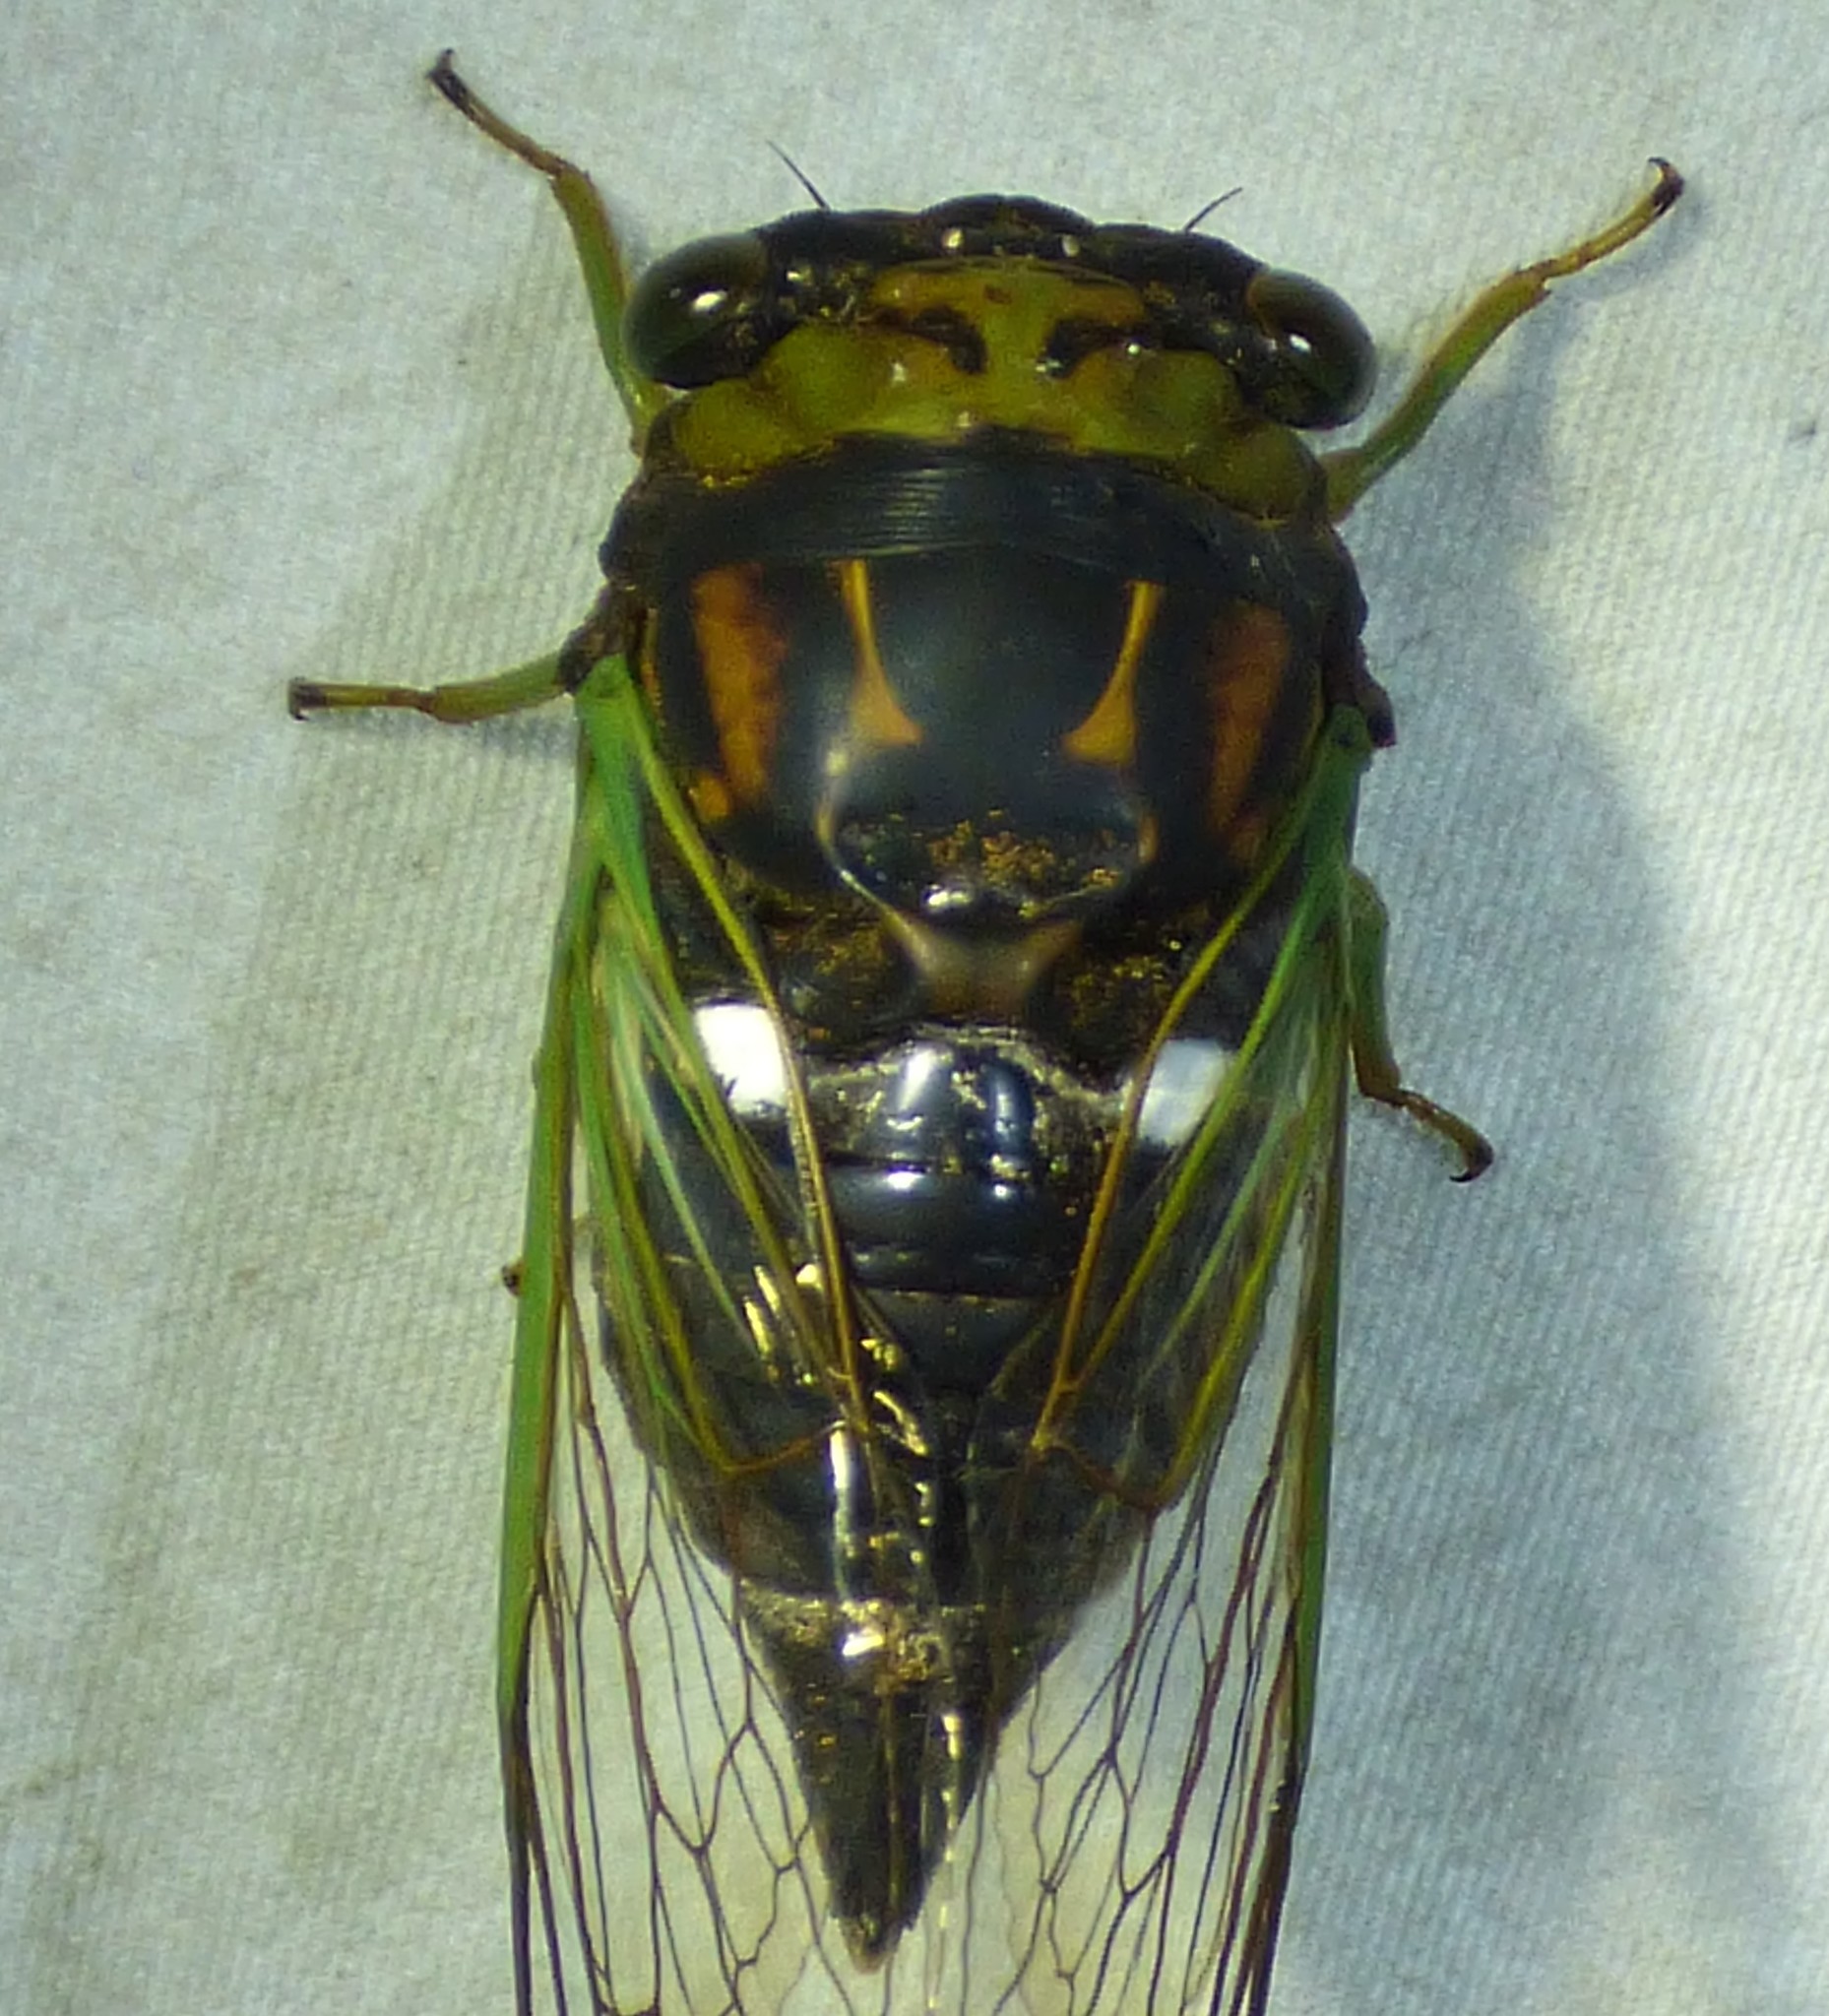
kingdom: Animalia
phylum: Arthropoda
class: Insecta
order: Hemiptera
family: Cicadidae
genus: Neotibicen
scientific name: Neotibicen tibicen
